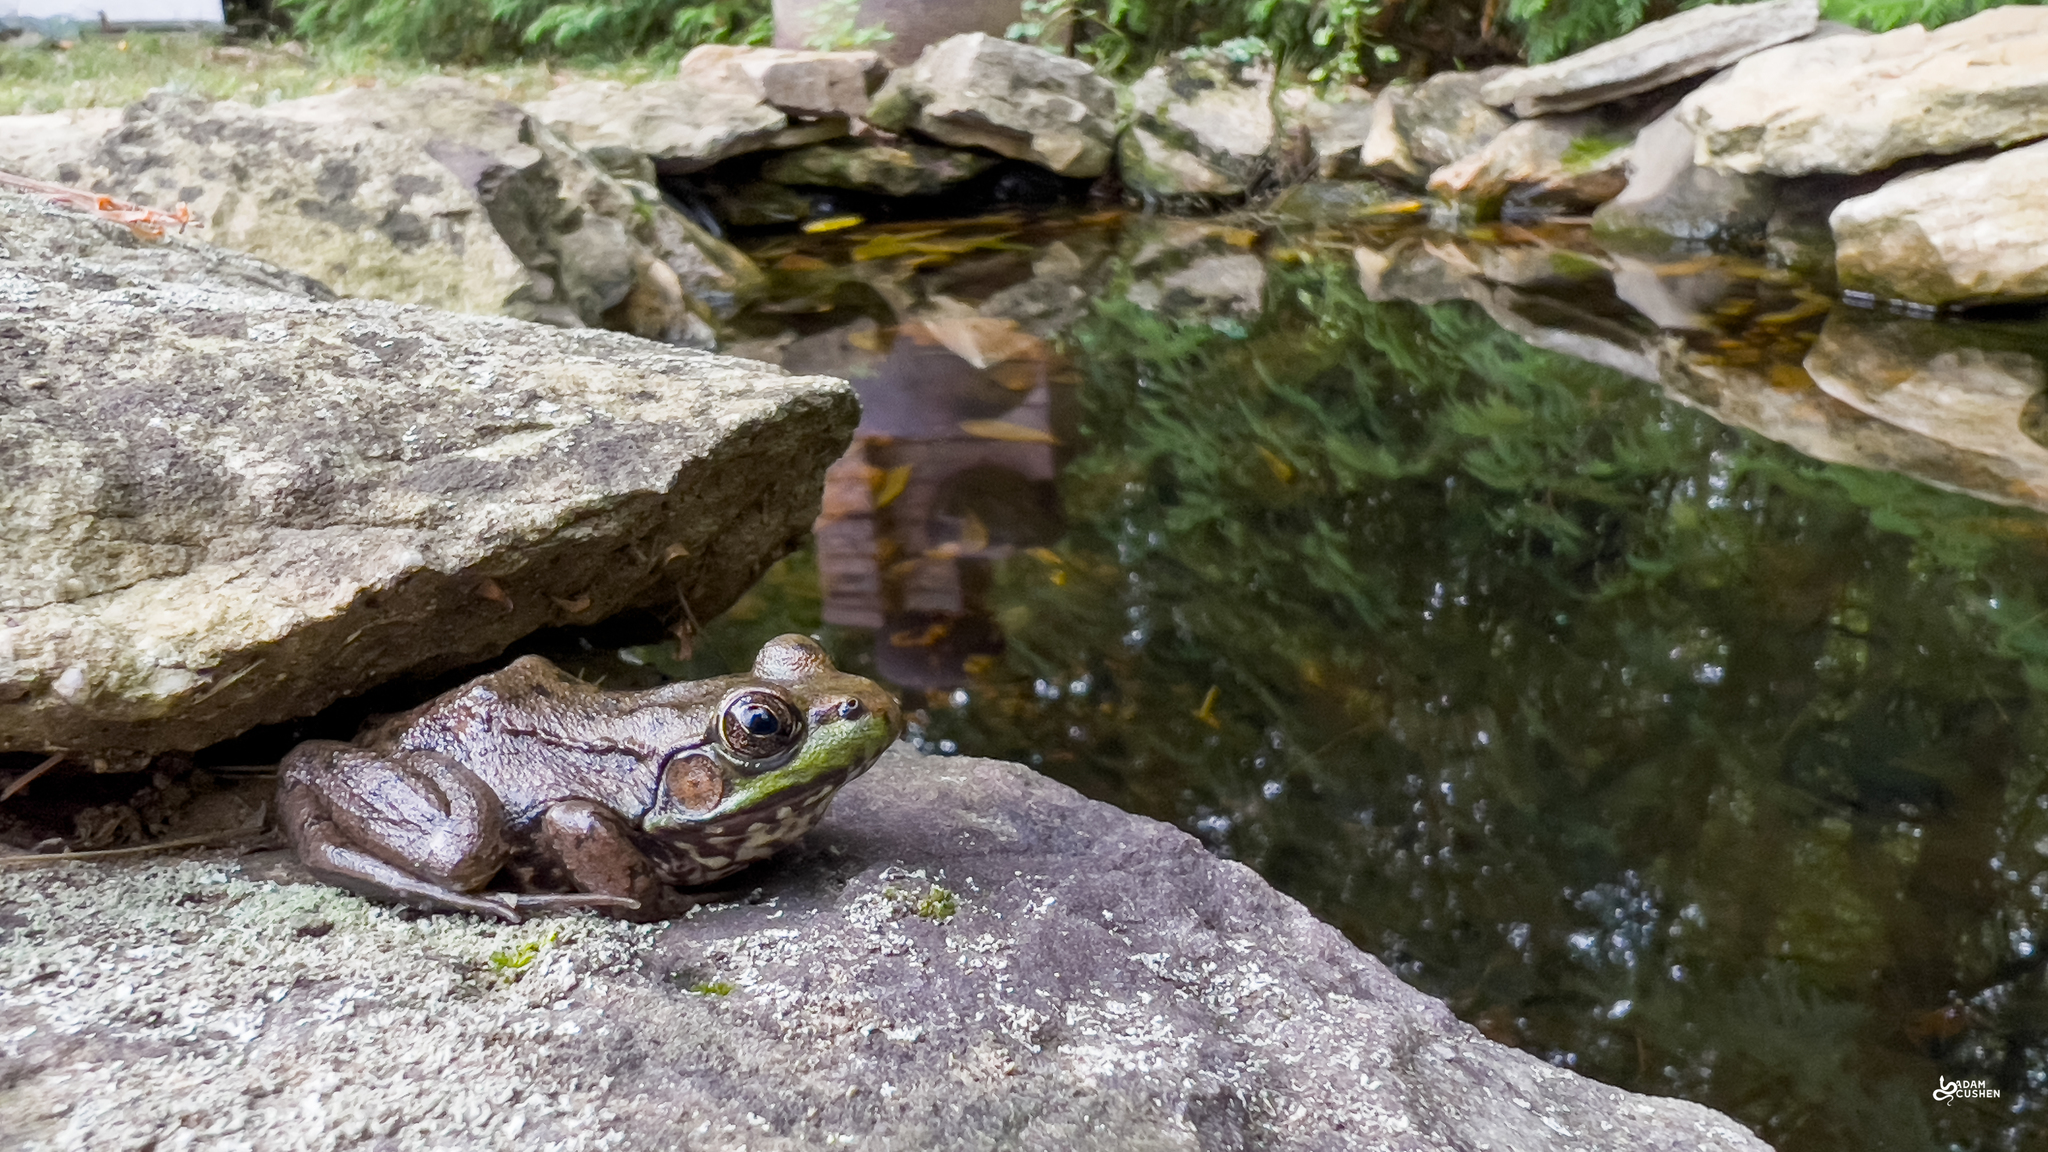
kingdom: Animalia
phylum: Chordata
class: Amphibia
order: Anura
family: Ranidae
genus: Lithobates
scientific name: Lithobates clamitans
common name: Green frog
